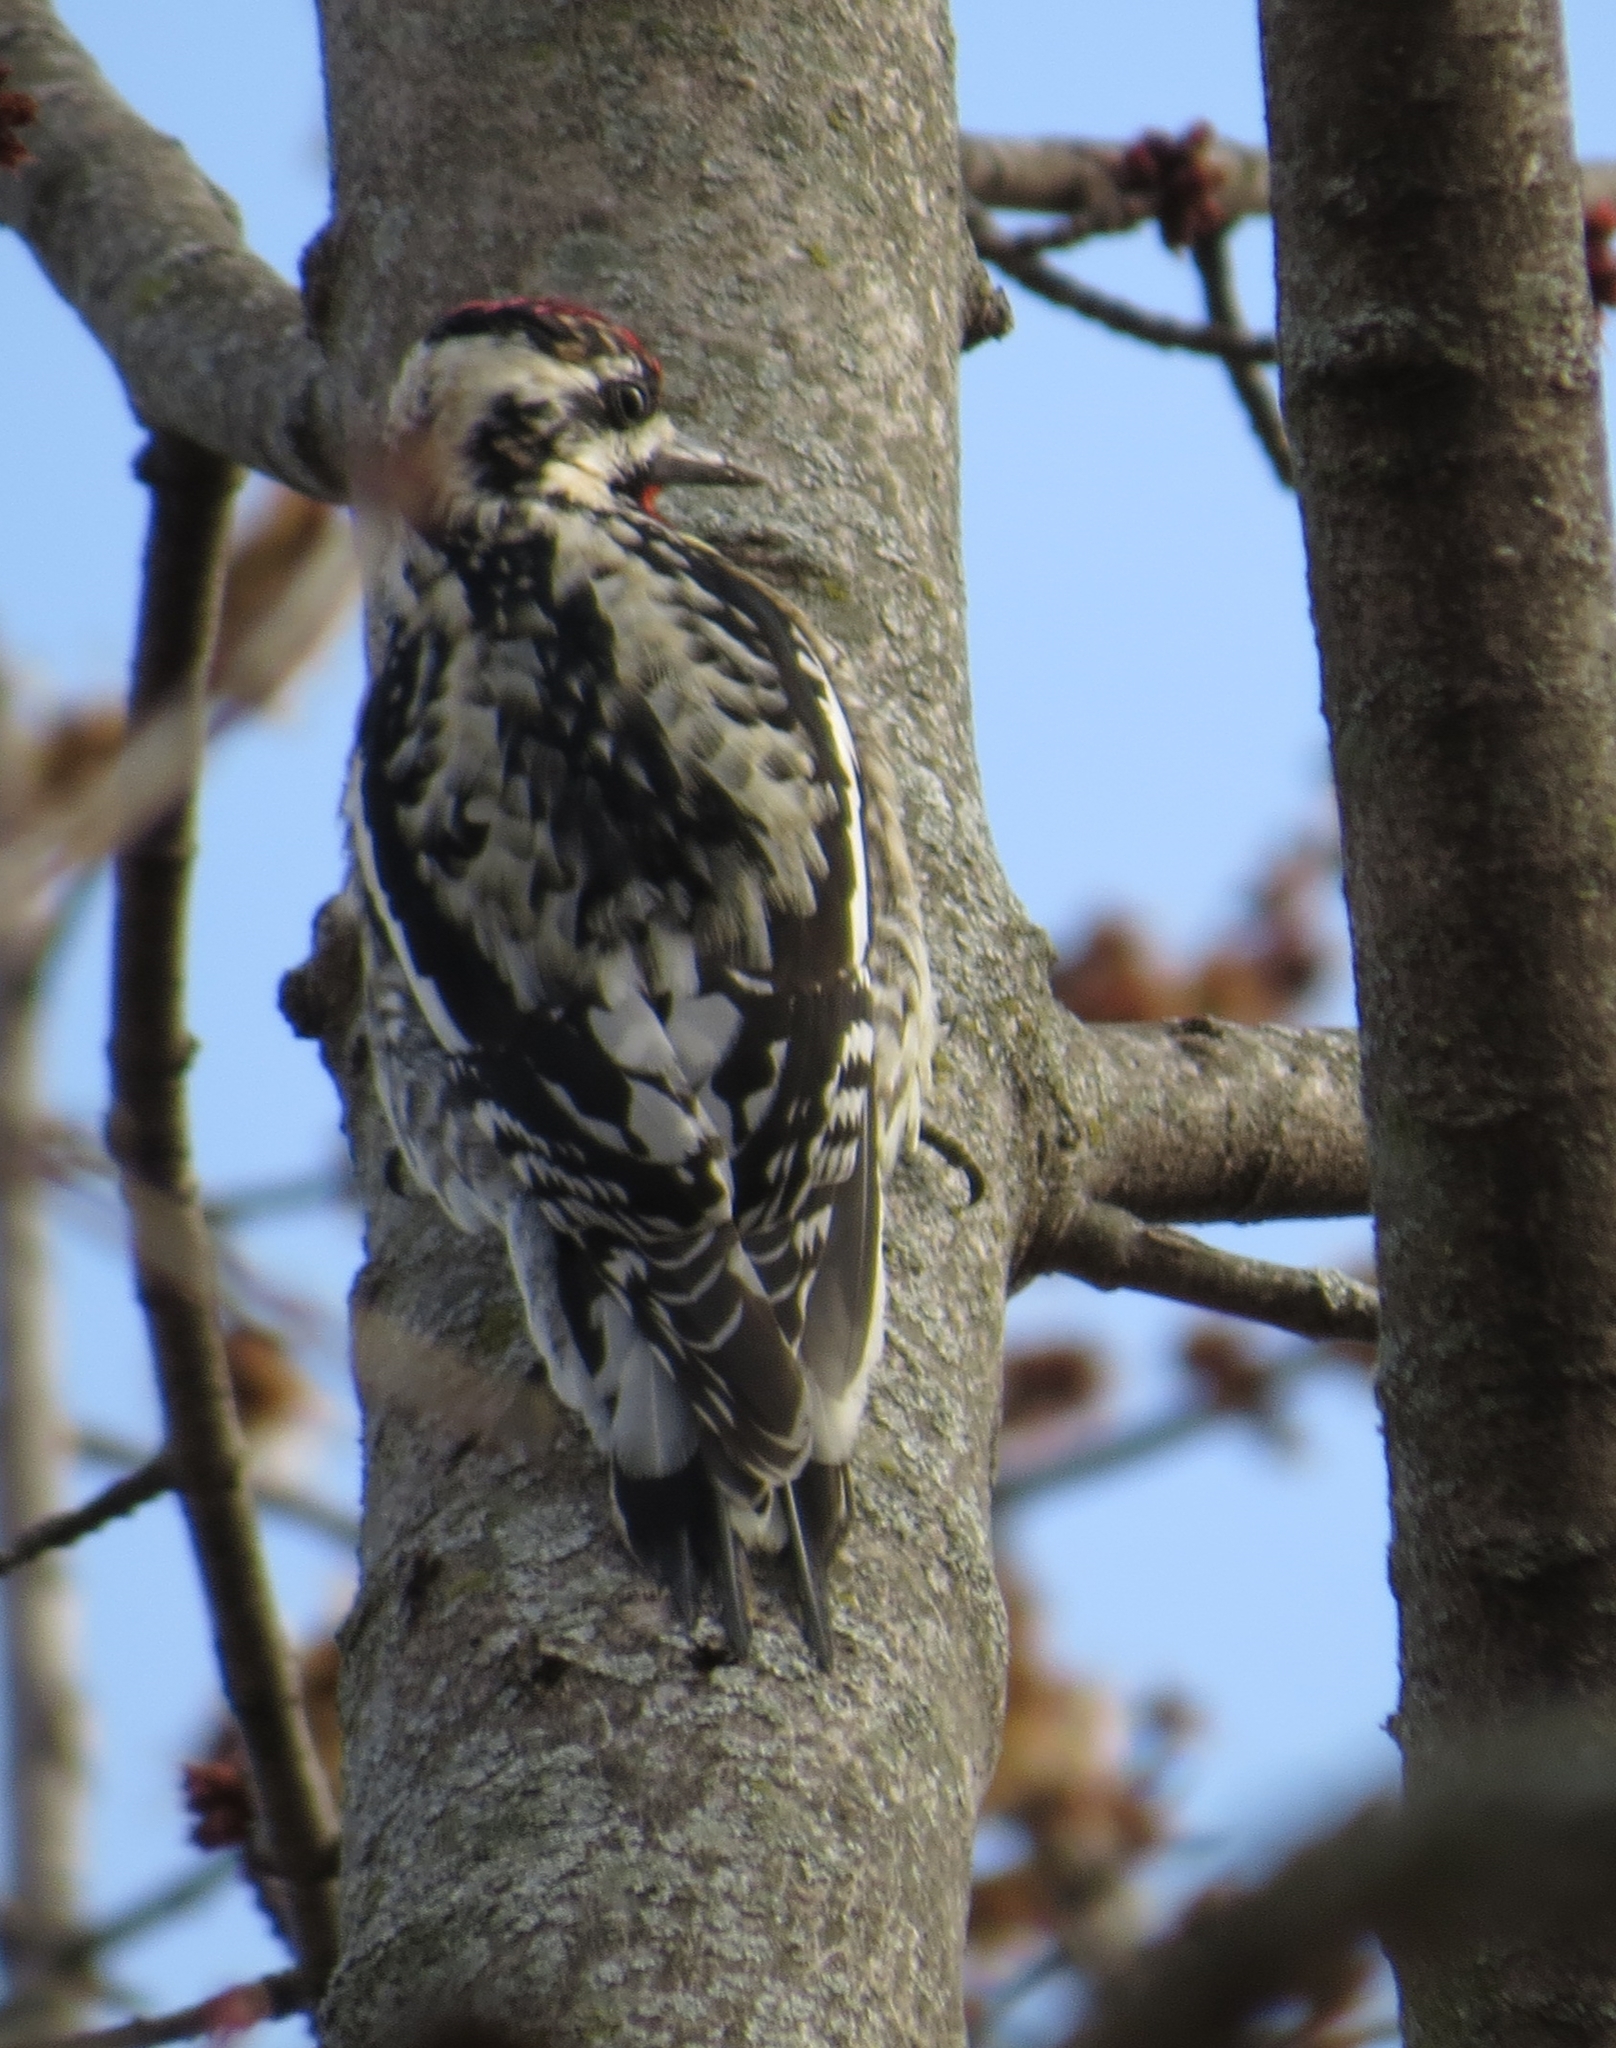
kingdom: Animalia
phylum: Chordata
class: Aves
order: Piciformes
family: Picidae
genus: Sphyrapicus
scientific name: Sphyrapicus varius
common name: Yellow-bellied sapsucker
